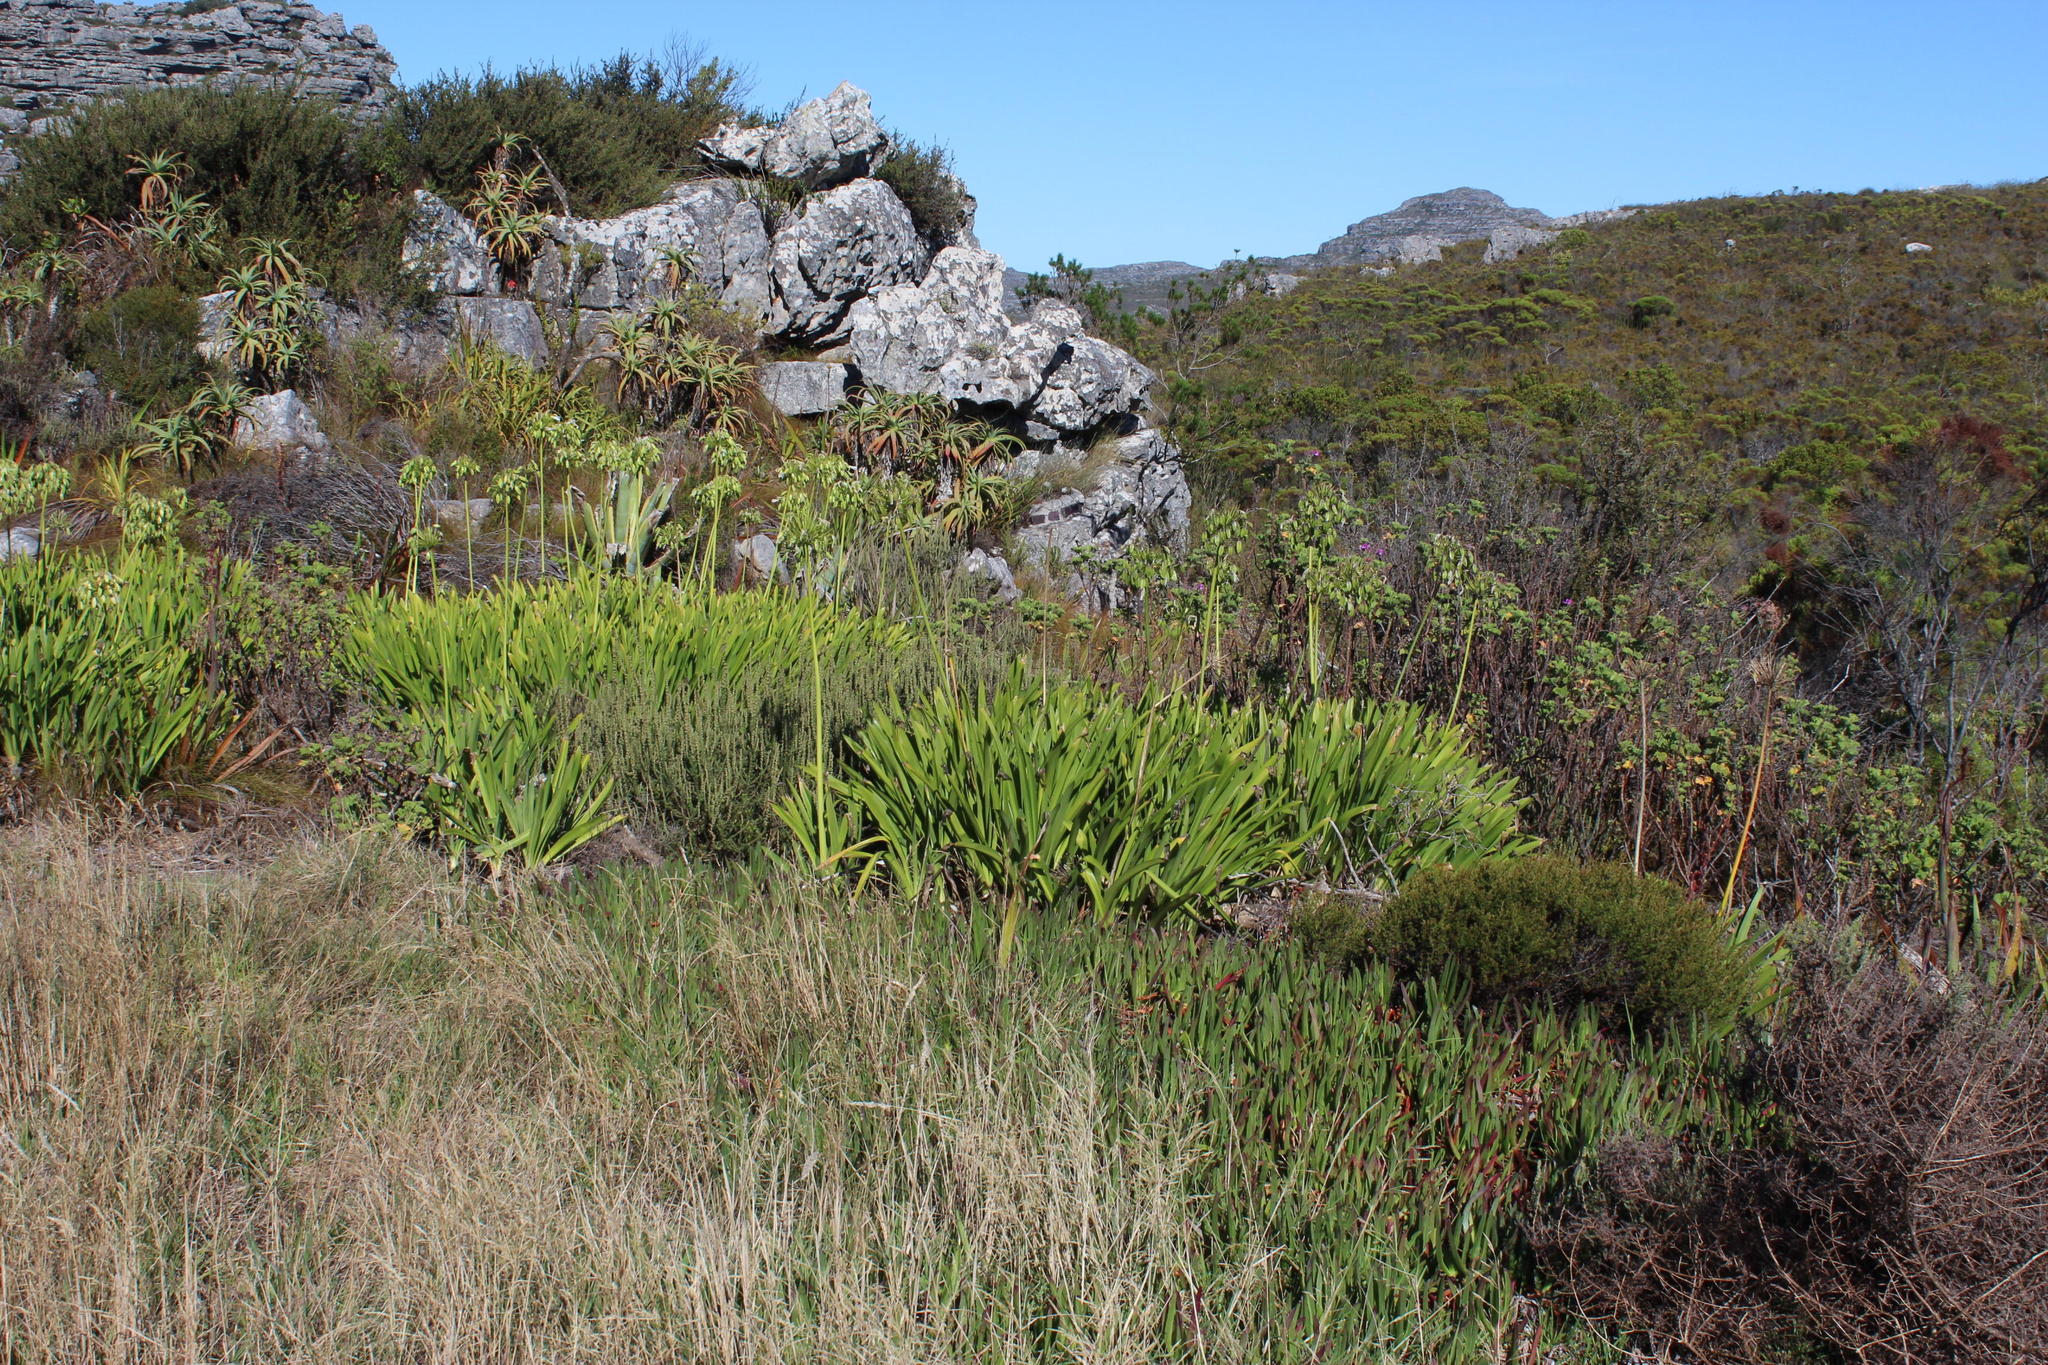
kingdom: Plantae
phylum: Tracheophyta
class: Liliopsida
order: Asparagales
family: Amaryllidaceae
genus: Agapanthus
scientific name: Agapanthus praecox
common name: African-lily
